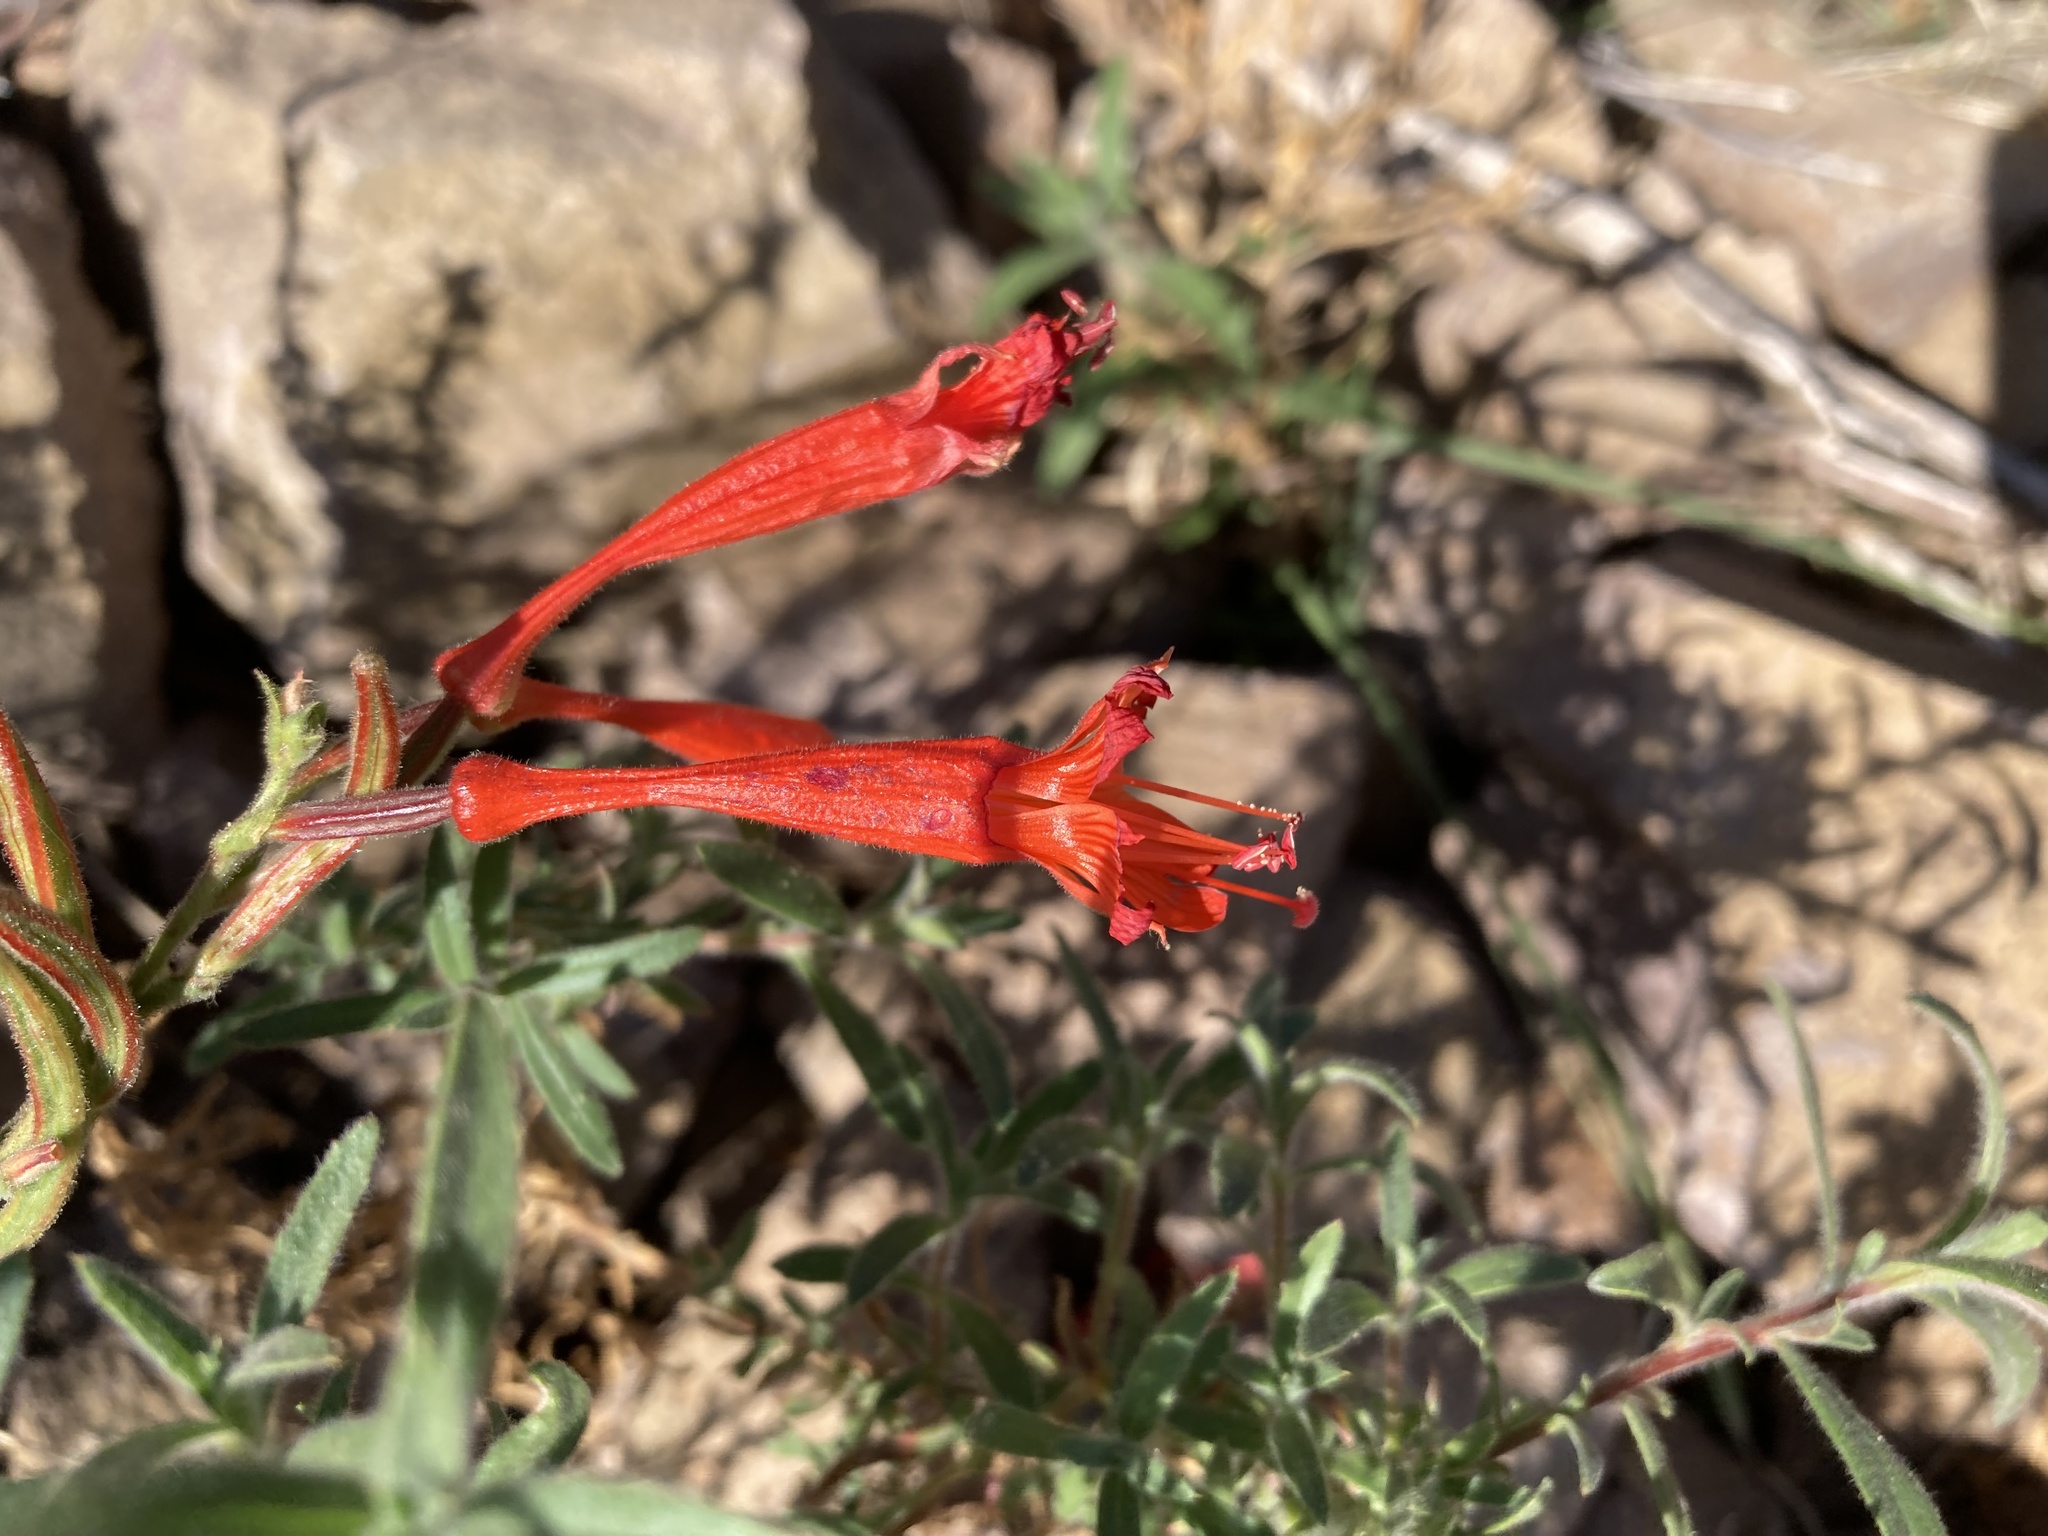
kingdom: Plantae
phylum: Tracheophyta
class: Magnoliopsida
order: Myrtales
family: Onagraceae
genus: Epilobium
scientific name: Epilobium canum
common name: California-fuchsia
